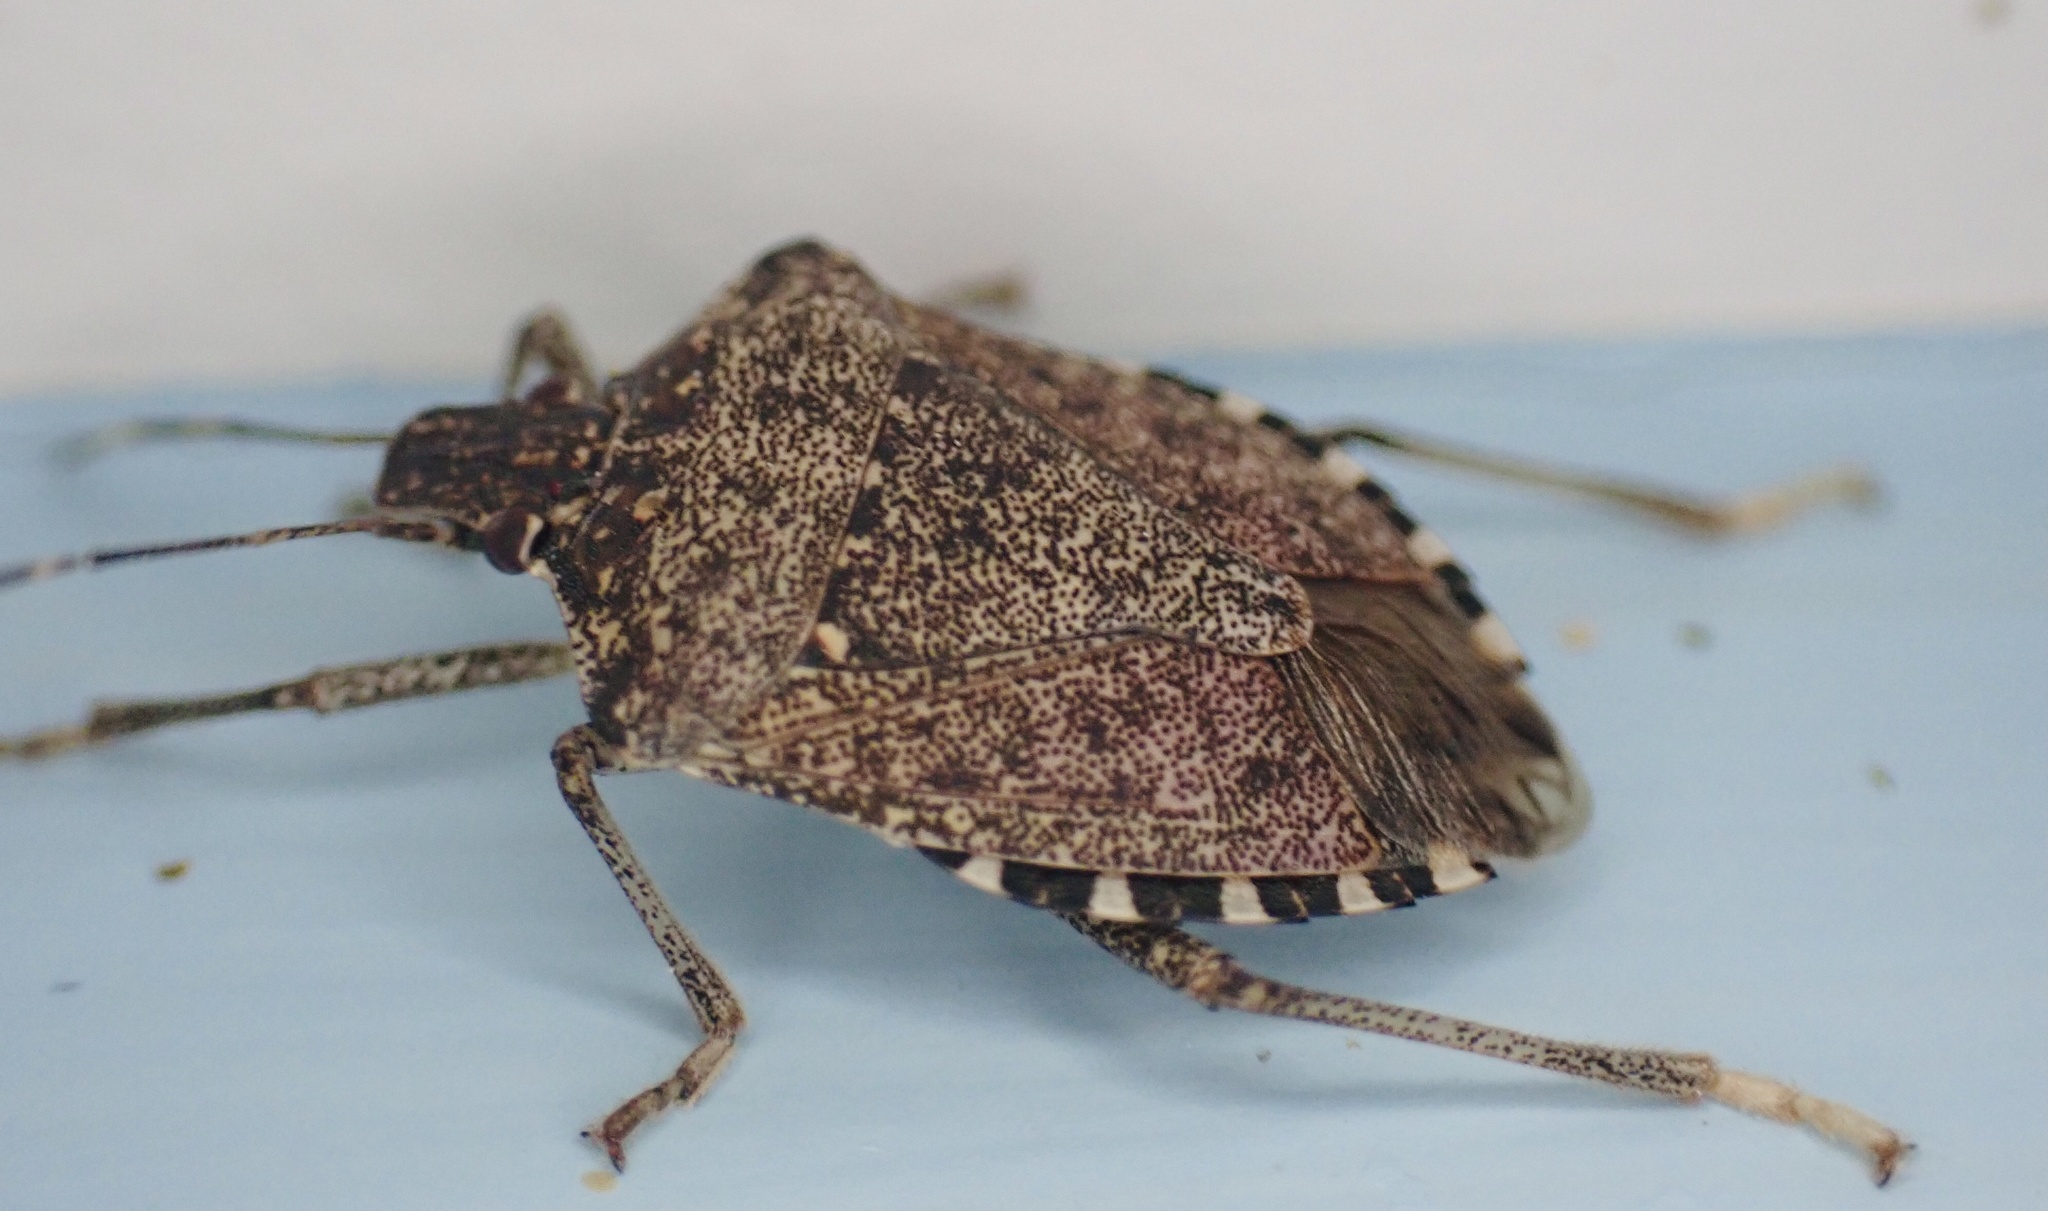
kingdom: Animalia
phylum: Arthropoda
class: Insecta
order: Hemiptera
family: Pentatomidae
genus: Halyomorpha
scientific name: Halyomorpha halys
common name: Brown marmorated stink bug
